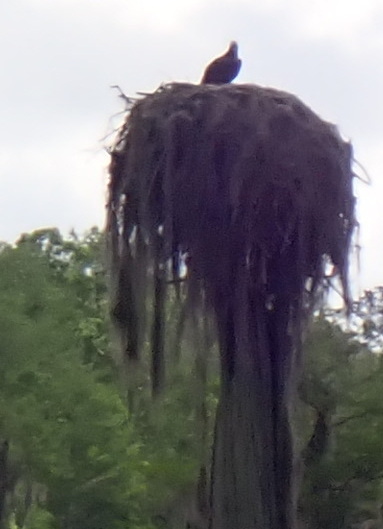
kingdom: Animalia
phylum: Chordata
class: Aves
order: Accipitriformes
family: Pandionidae
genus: Pandion
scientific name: Pandion haliaetus
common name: Osprey
